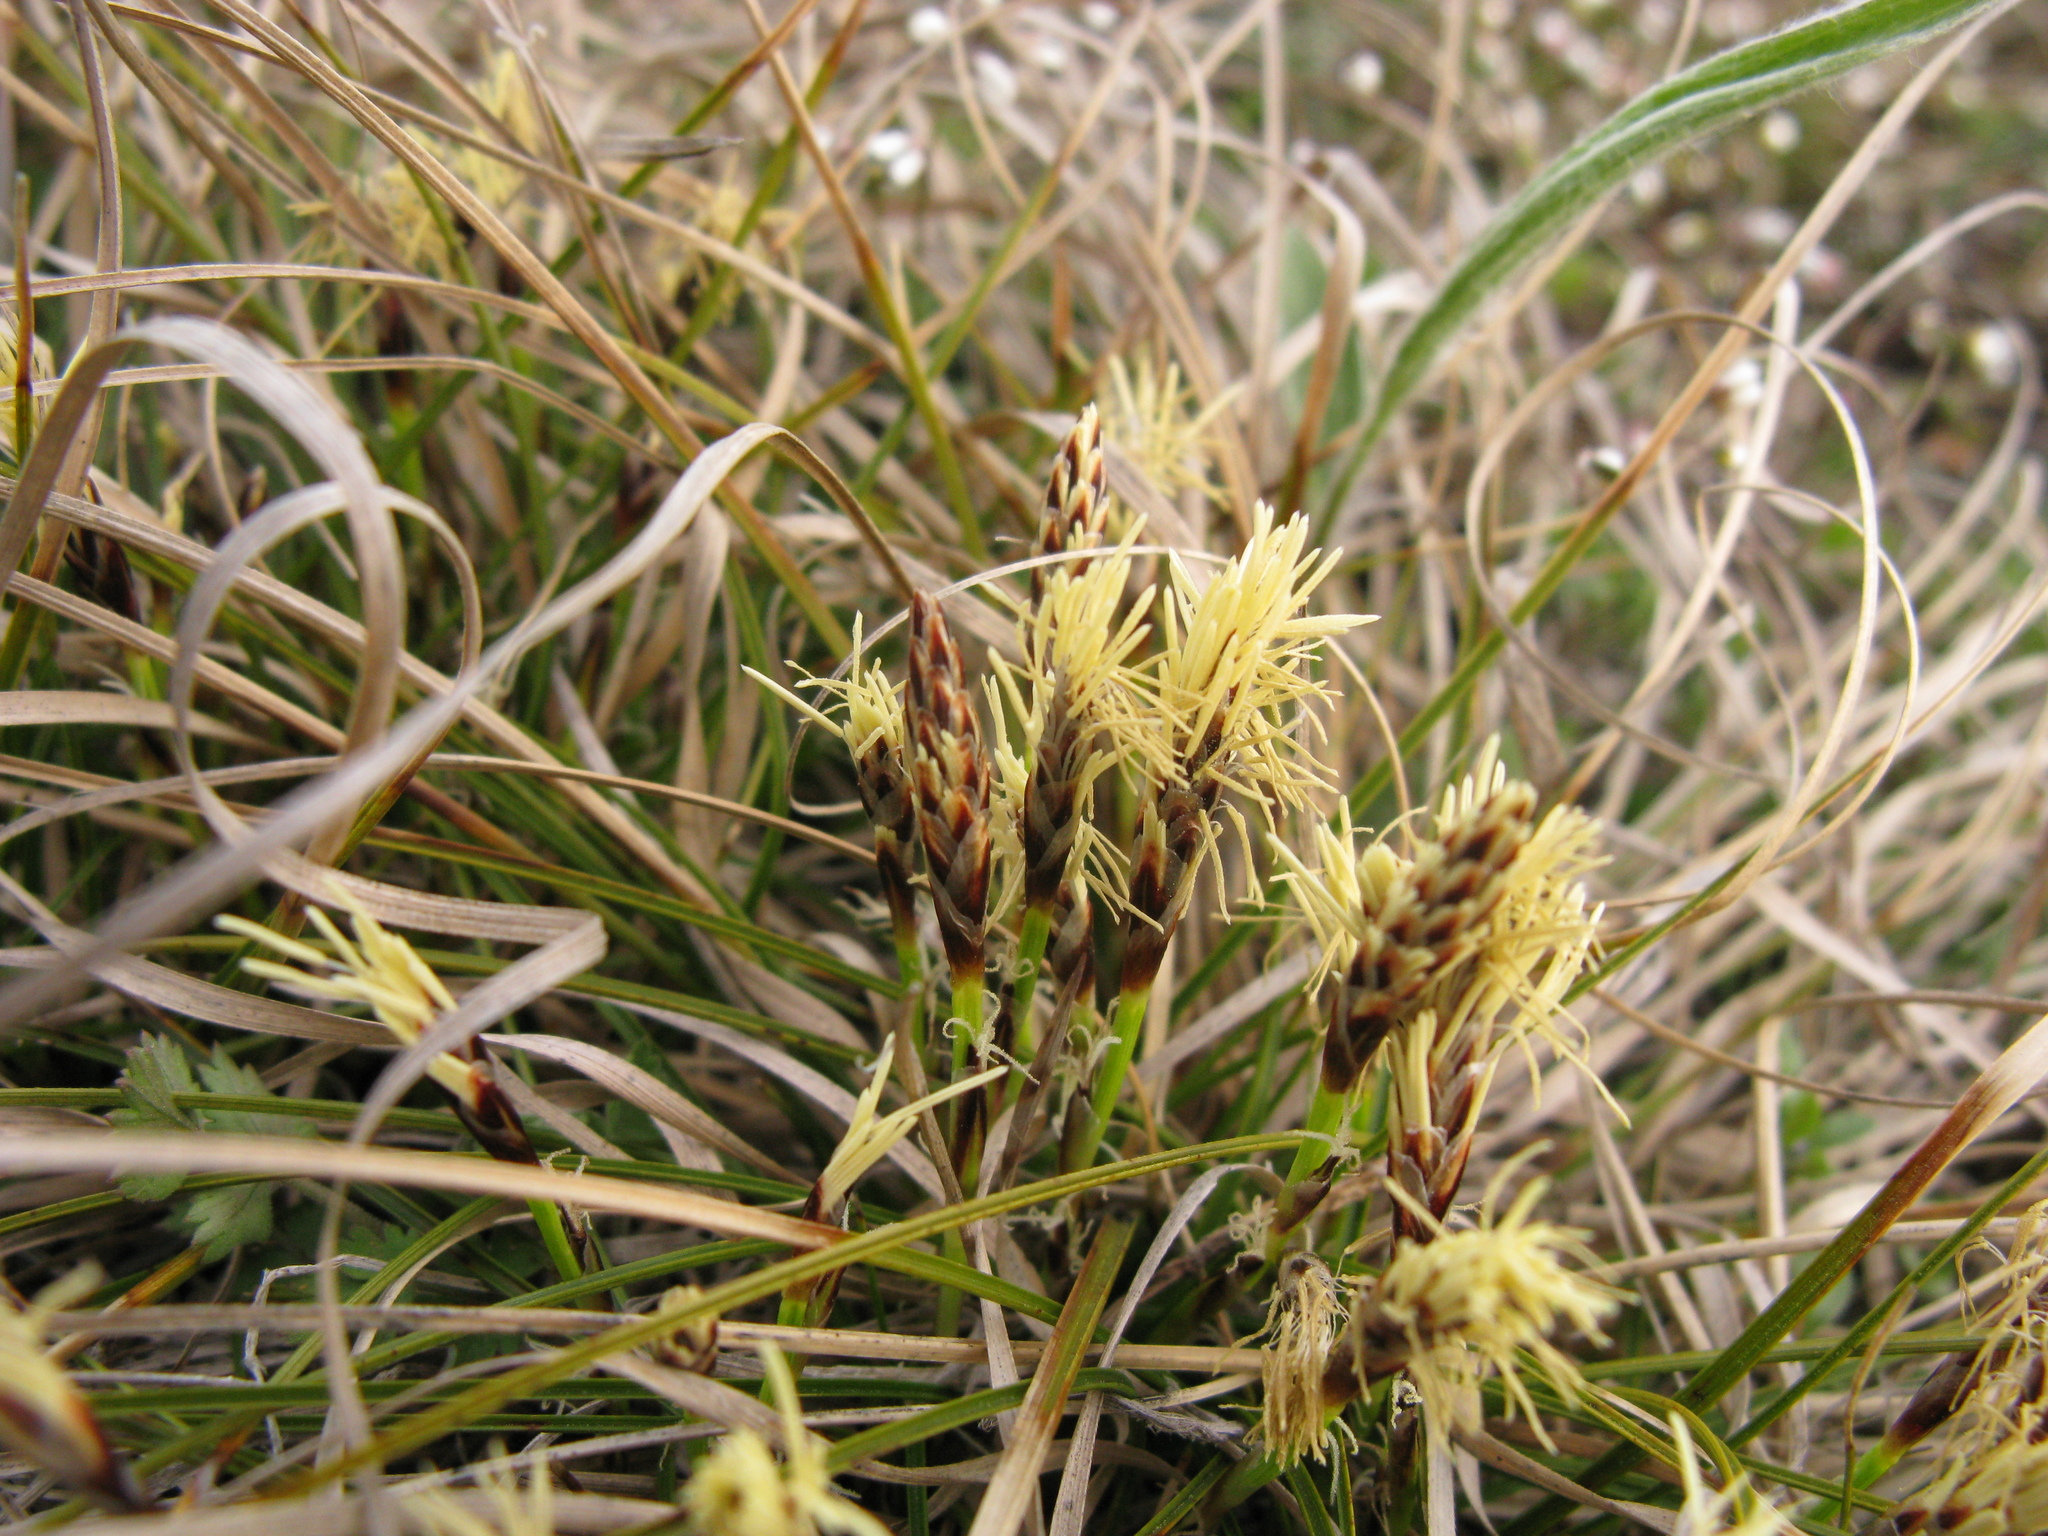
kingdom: Plantae
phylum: Tracheophyta
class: Liliopsida
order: Poales
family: Cyperaceae
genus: Carex
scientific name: Carex humilis
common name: Dwarf sedge
